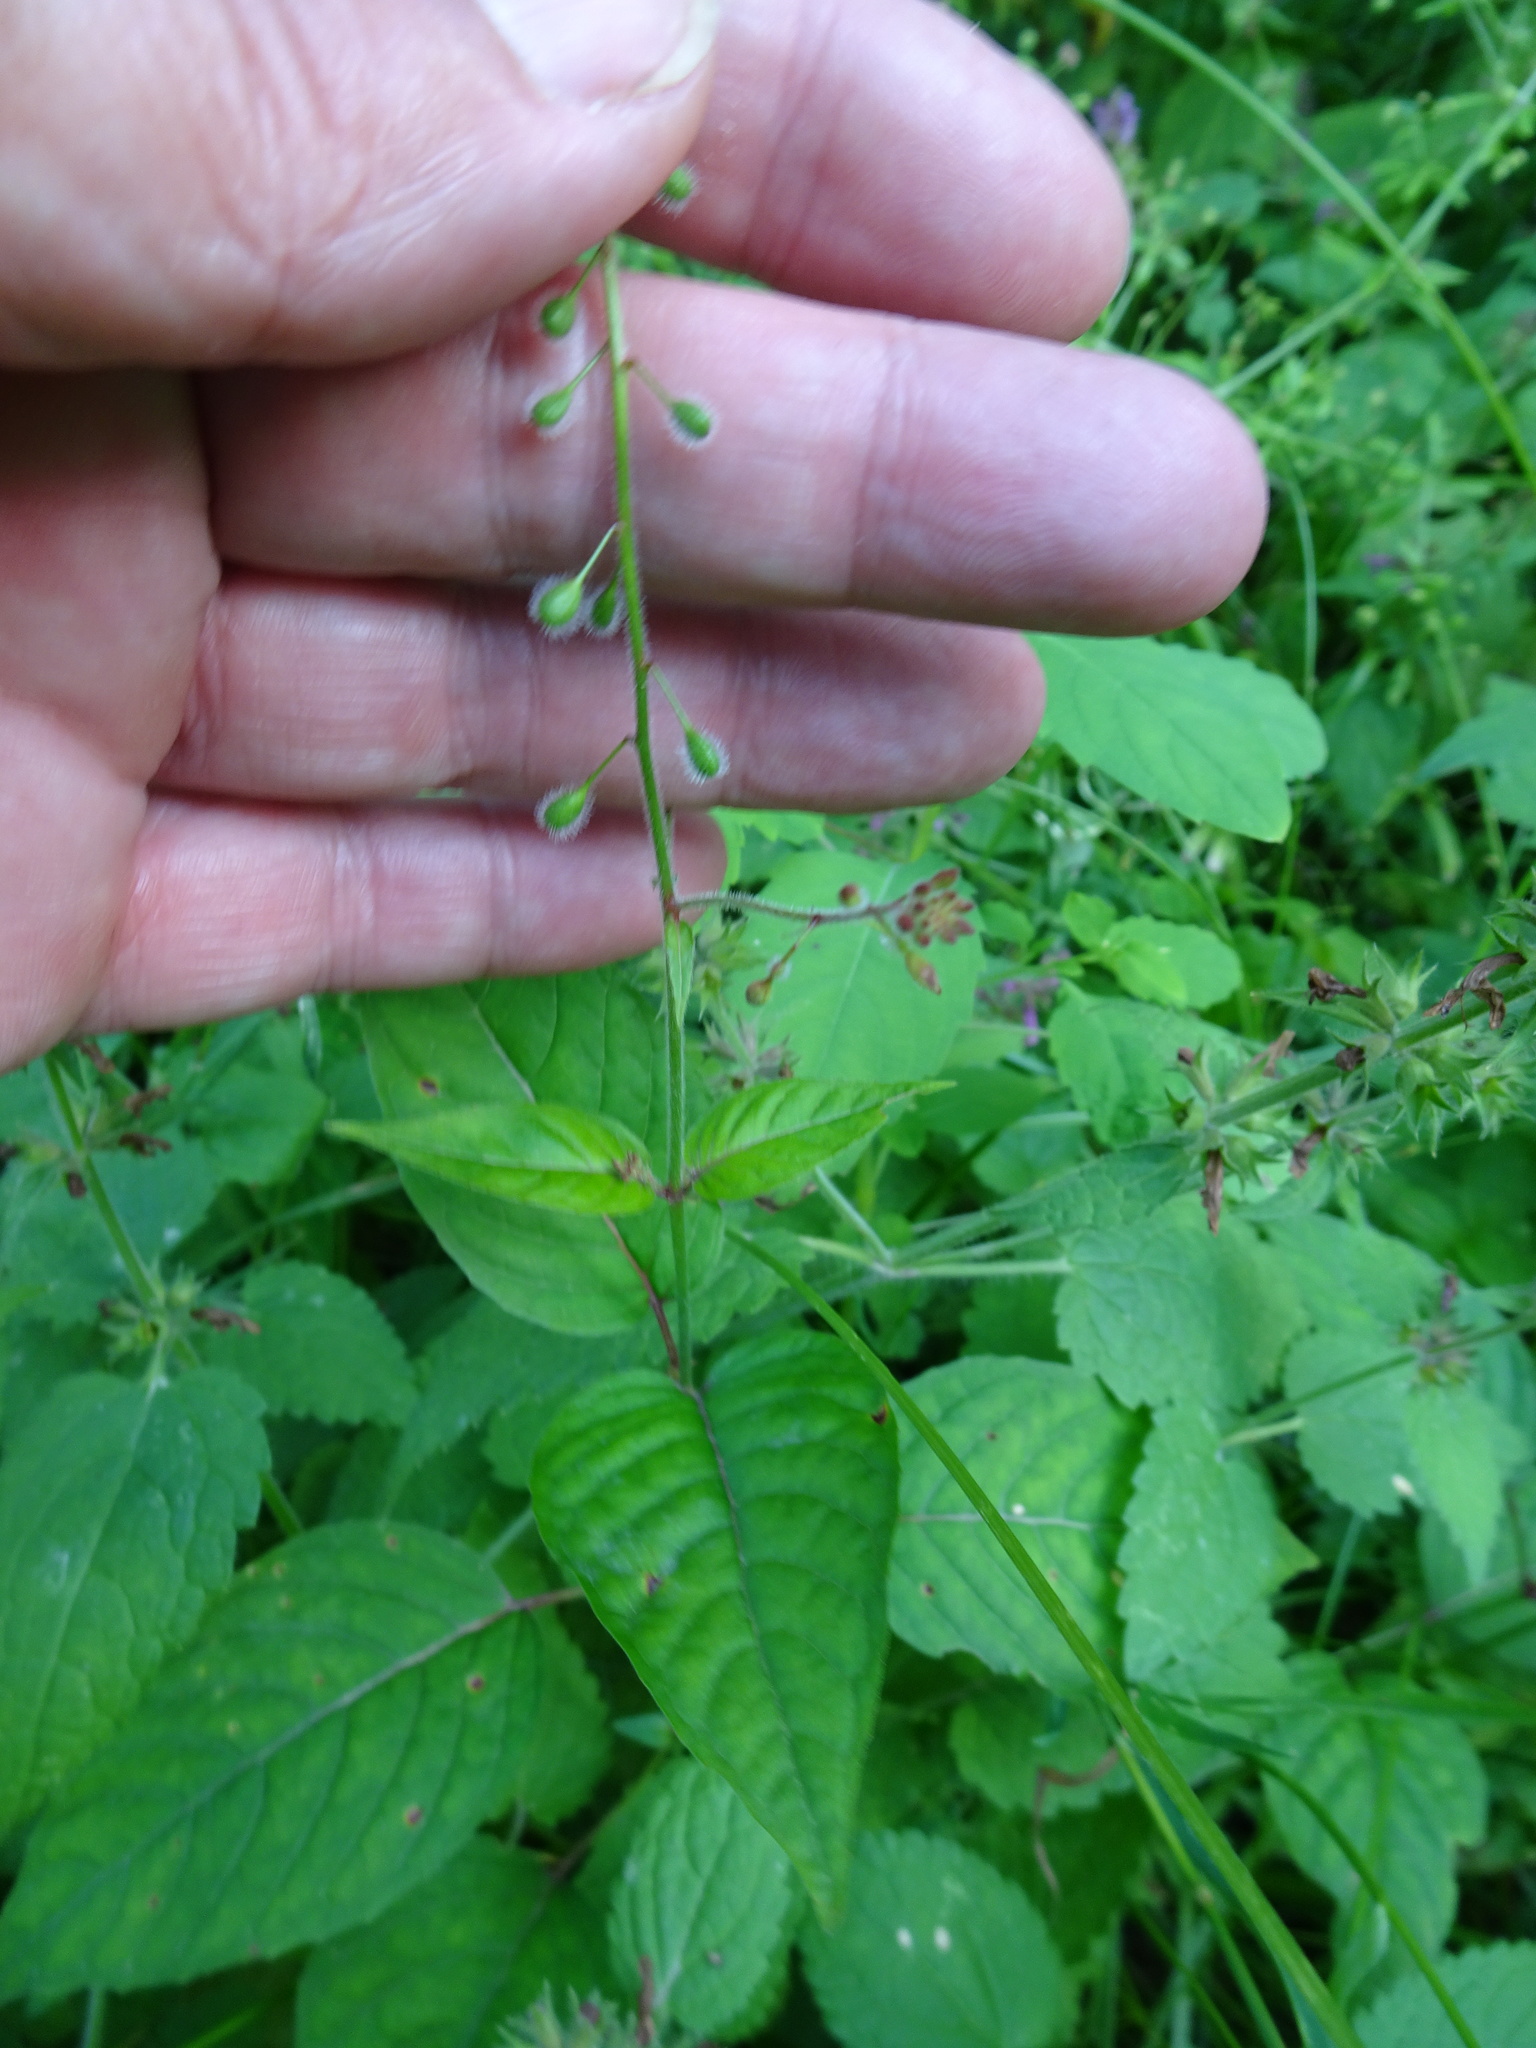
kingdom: Plantae
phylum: Tracheophyta
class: Magnoliopsida
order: Myrtales
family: Onagraceae
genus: Circaea
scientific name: Circaea lutetiana
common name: Enchanter's-nightshade
